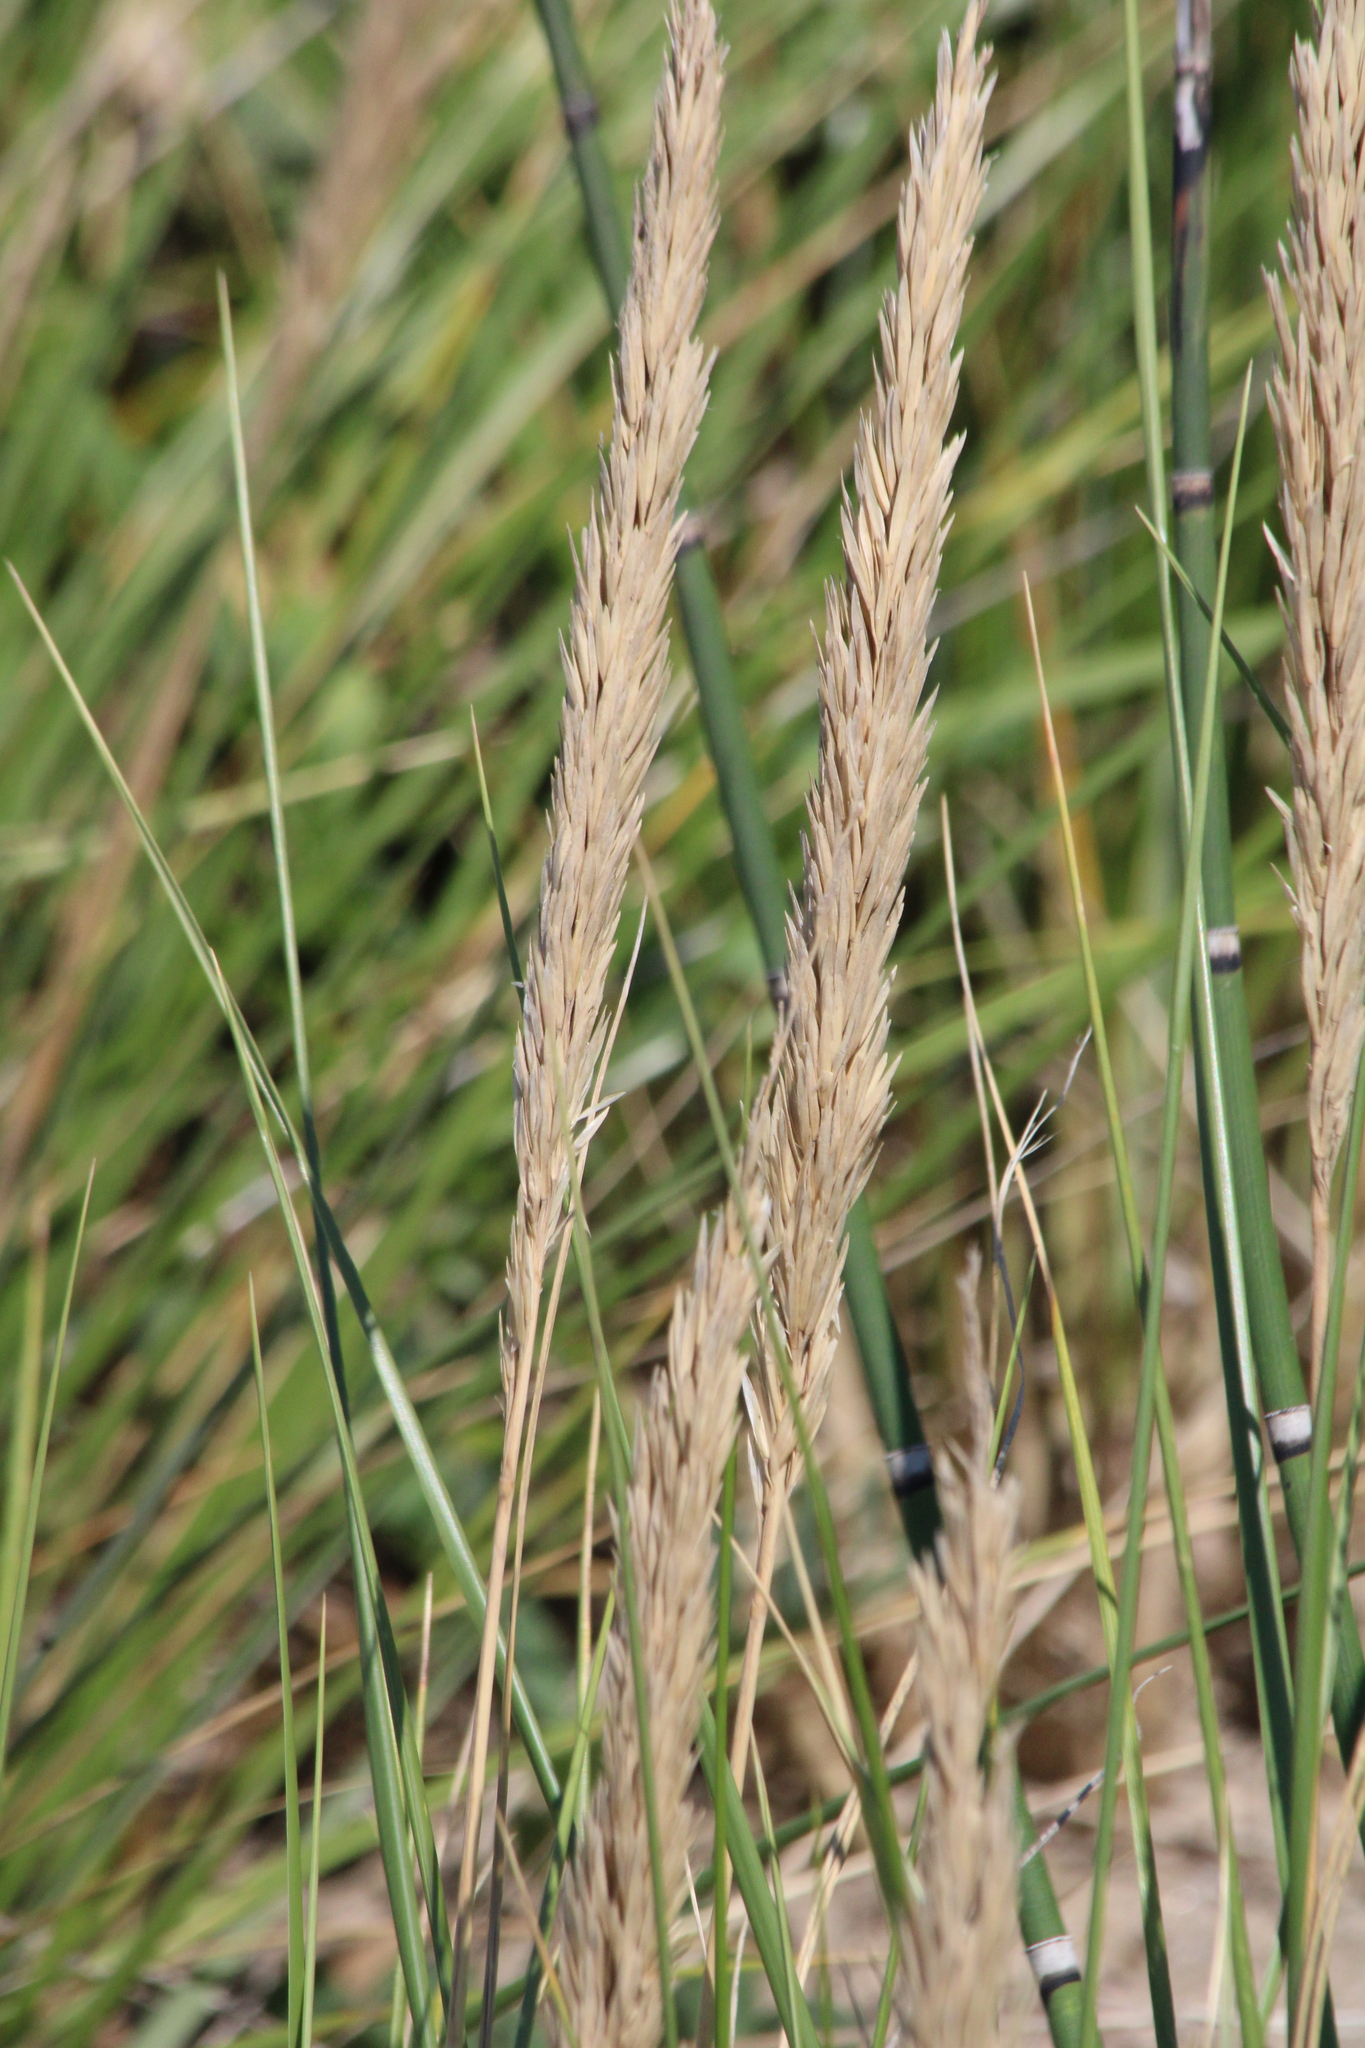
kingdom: Plantae
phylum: Tracheophyta
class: Liliopsida
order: Poales
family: Poaceae
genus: Calamagrostis
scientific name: Calamagrostis breviligulata
